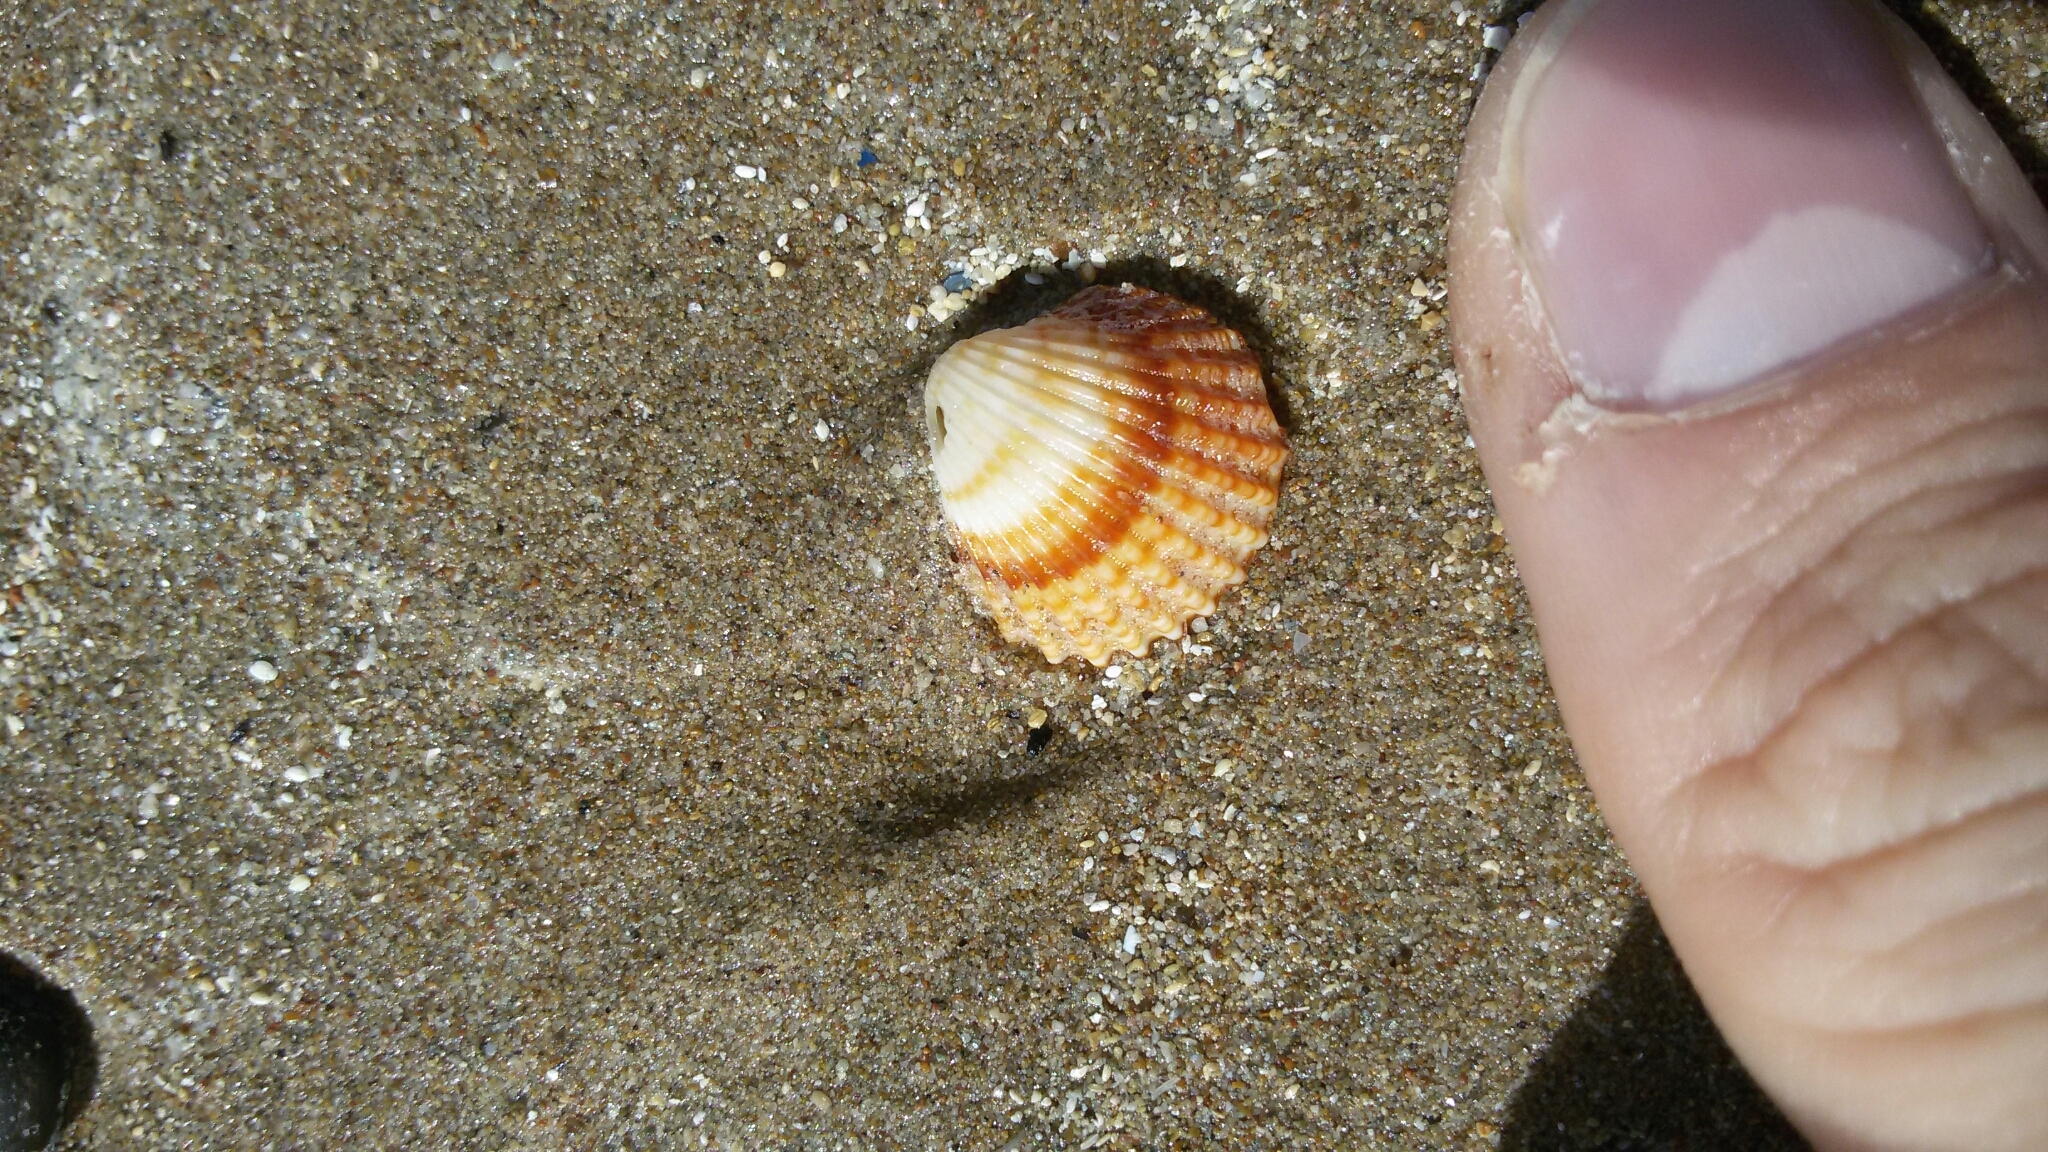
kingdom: Animalia
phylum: Mollusca
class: Bivalvia
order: Cardiida
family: Cardiidae
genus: Acanthocardia
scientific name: Acanthocardia tuberculata
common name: Rough cockle
